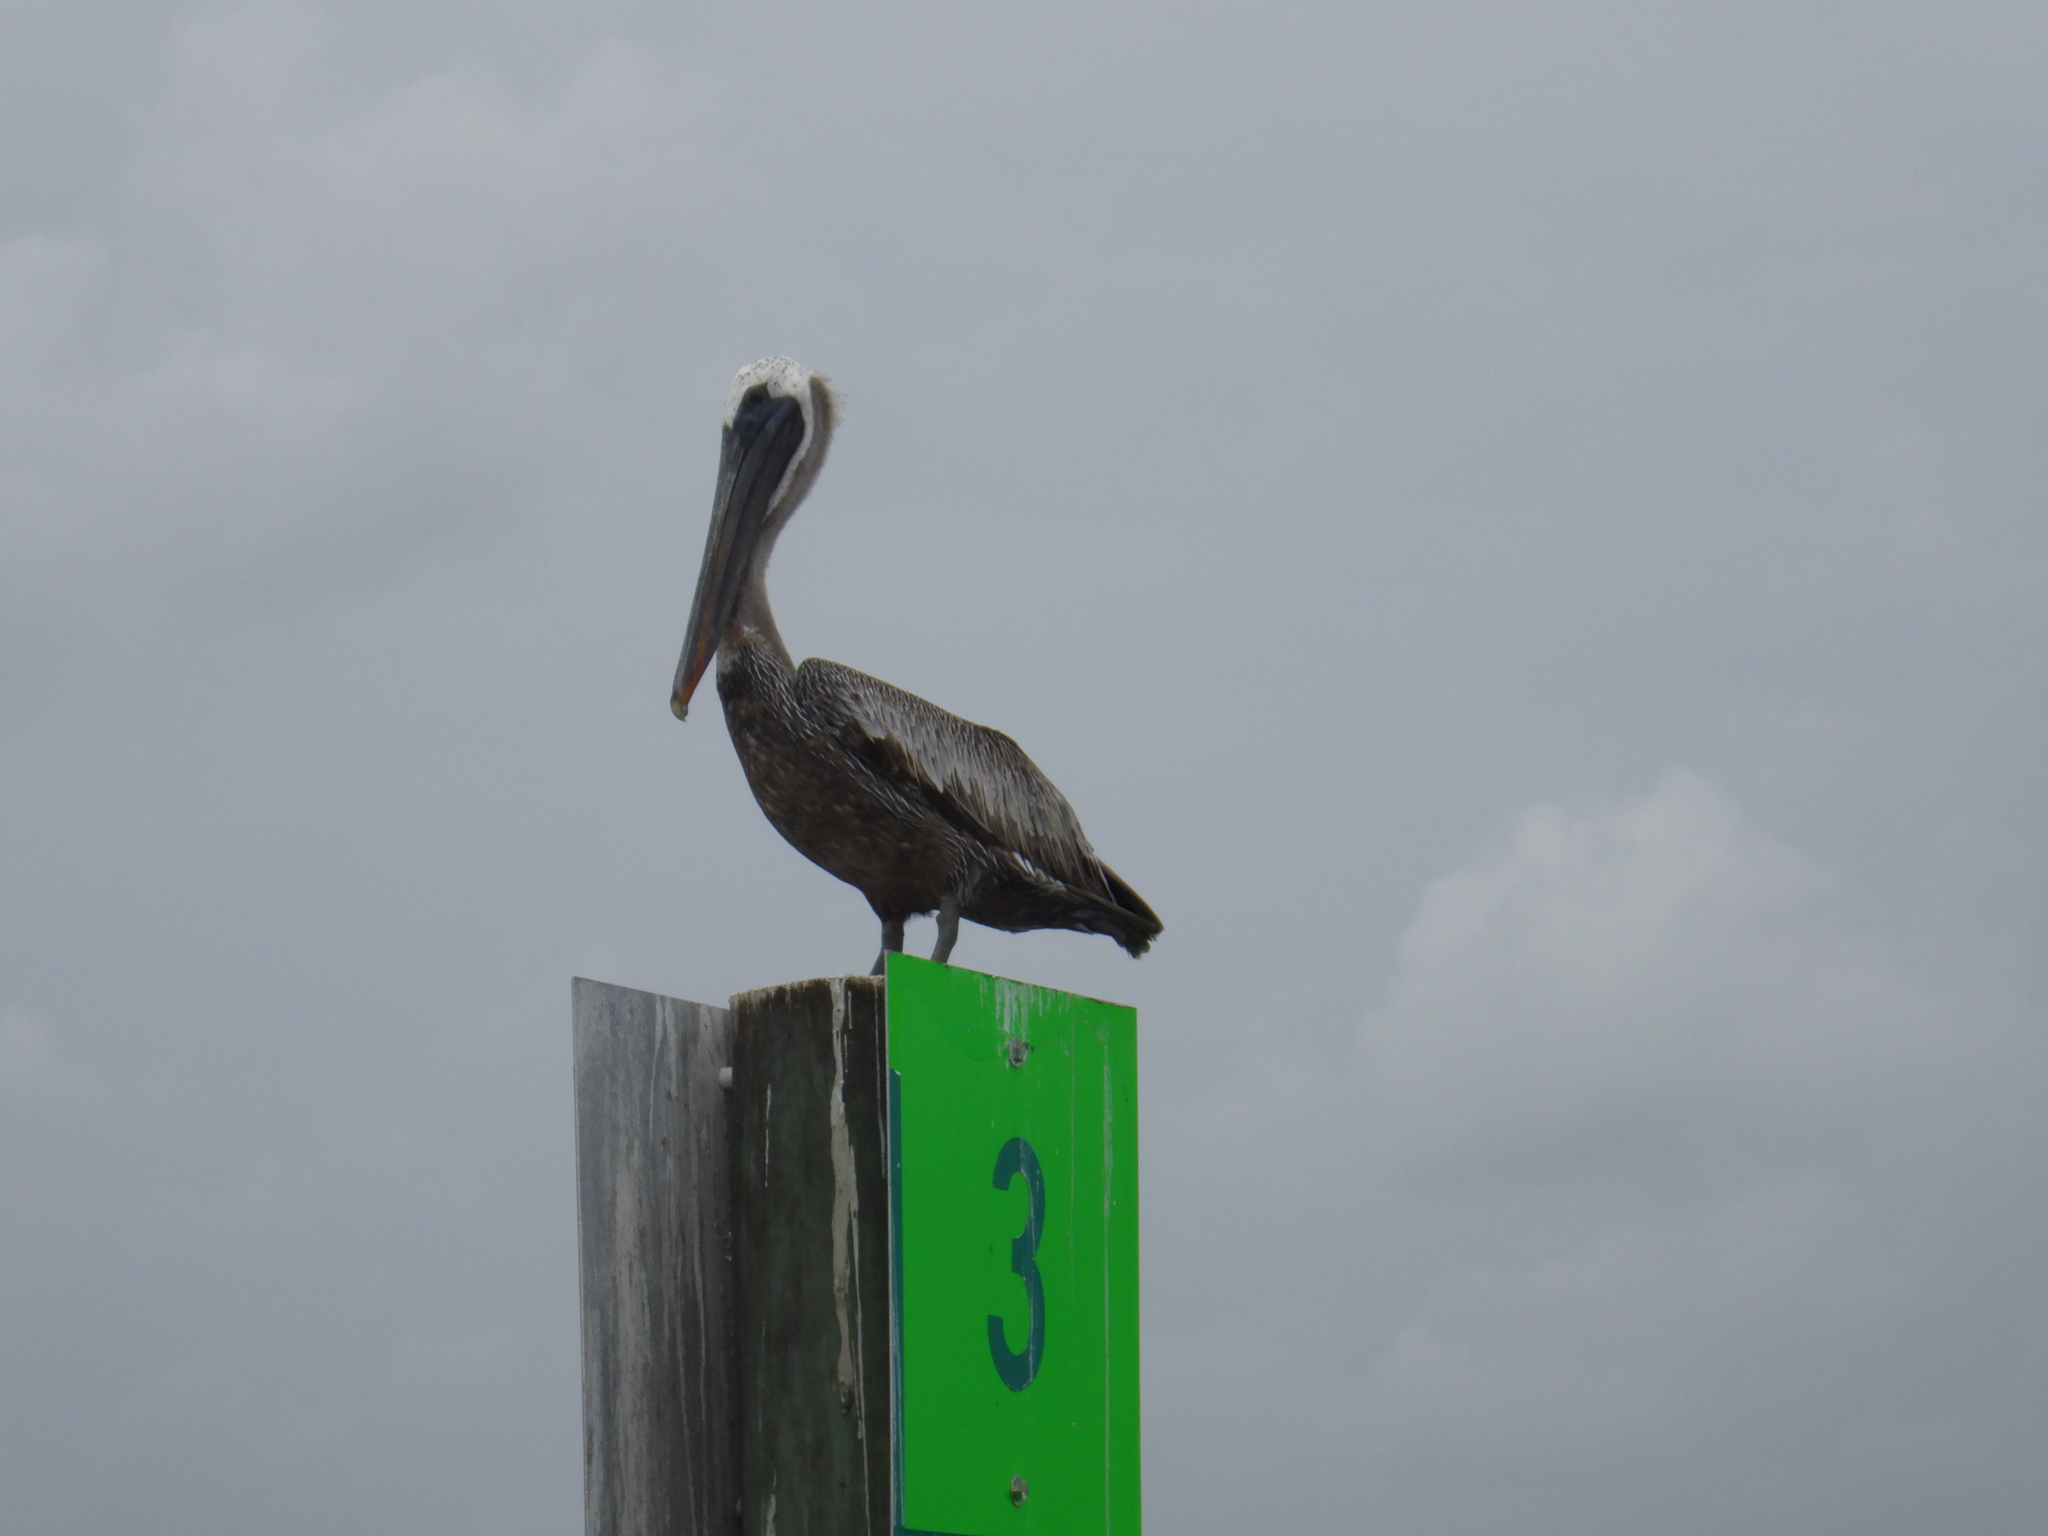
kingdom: Animalia
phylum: Chordata
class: Aves
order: Pelecaniformes
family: Pelecanidae
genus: Pelecanus
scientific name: Pelecanus occidentalis
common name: Brown pelican
